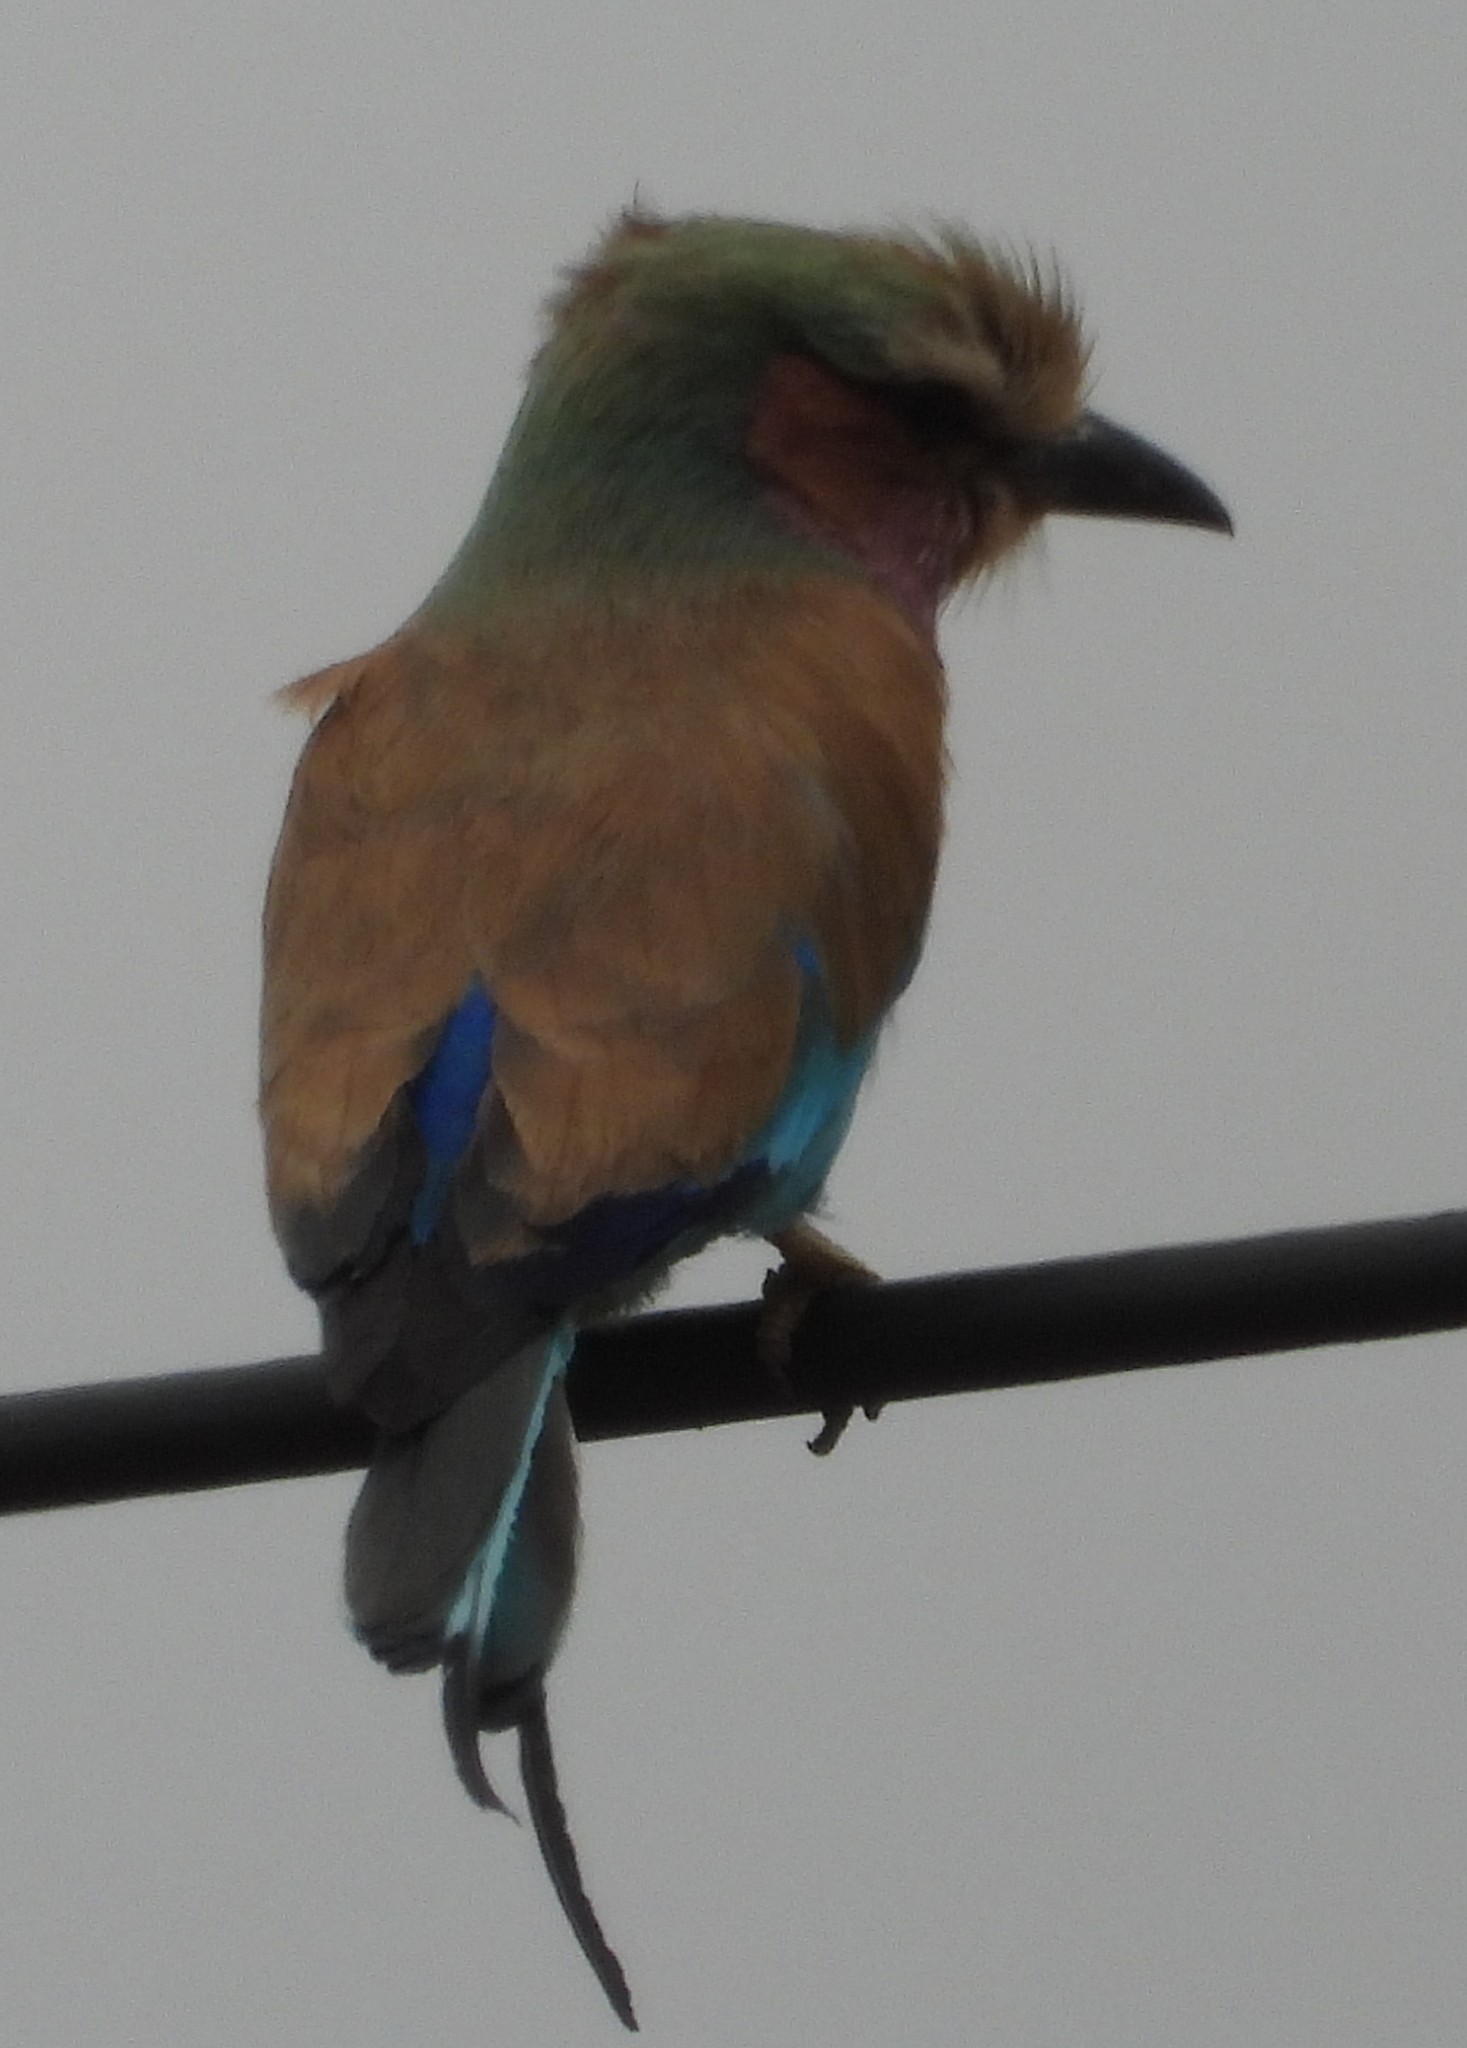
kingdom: Animalia
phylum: Chordata
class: Aves
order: Coraciiformes
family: Coraciidae
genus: Coracias
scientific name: Coracias caudatus
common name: Lilac-breasted roller
